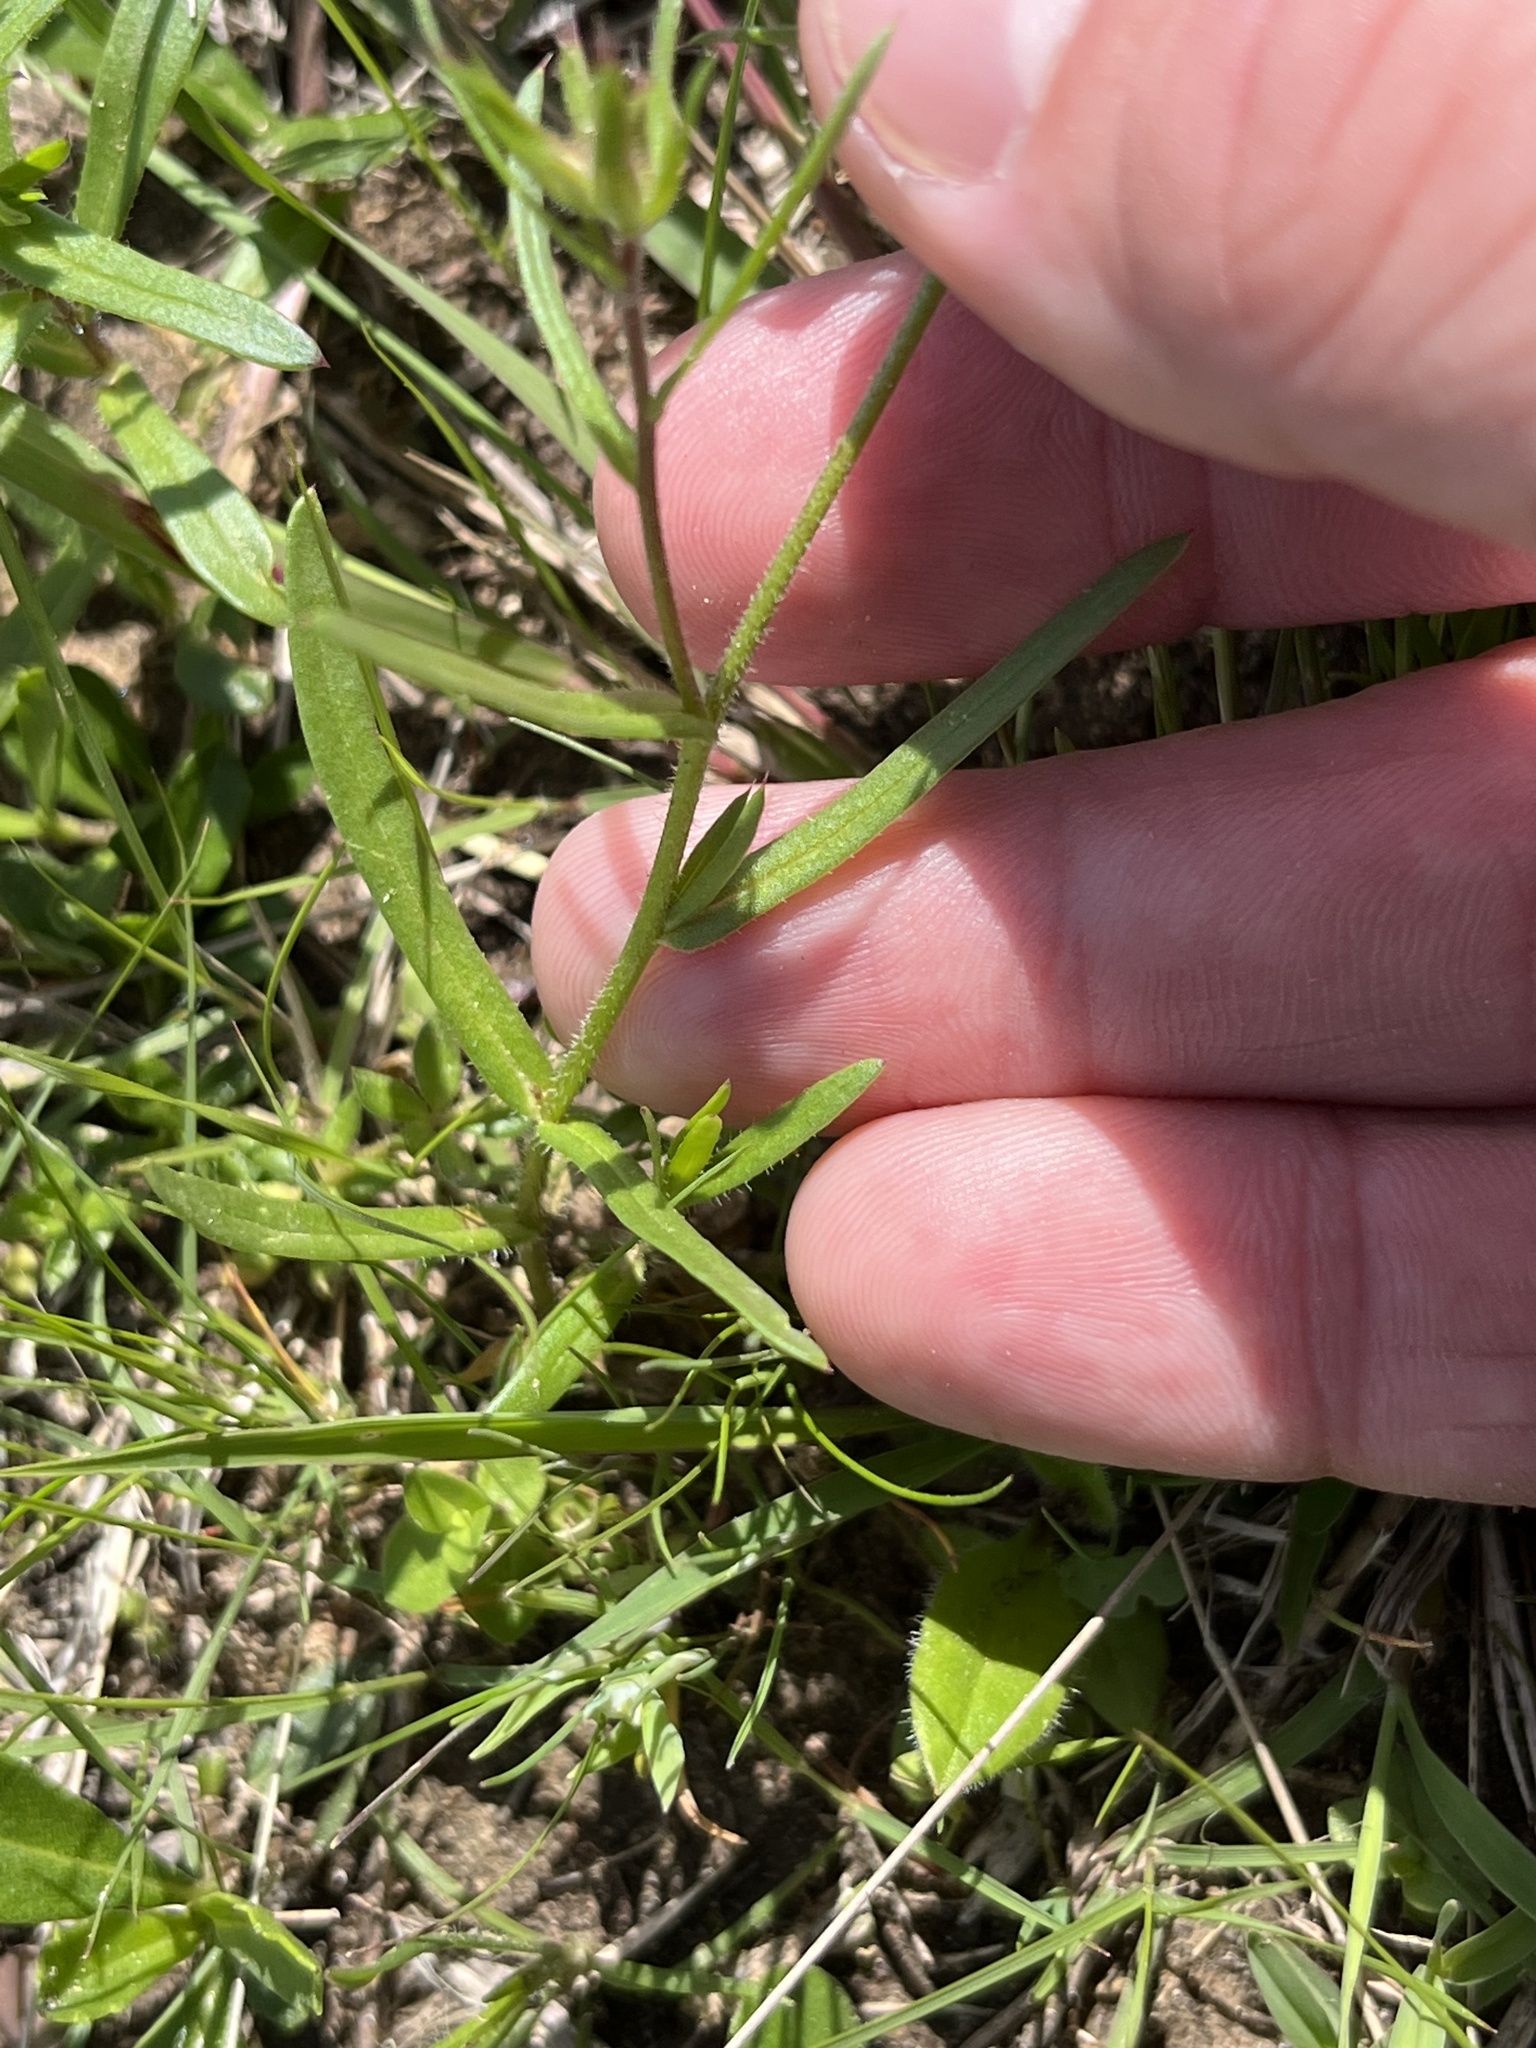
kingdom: Plantae
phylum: Tracheophyta
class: Magnoliopsida
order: Ericales
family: Polemoniaceae
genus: Phlox
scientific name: Phlox cuspidata
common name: Pointed phlox
